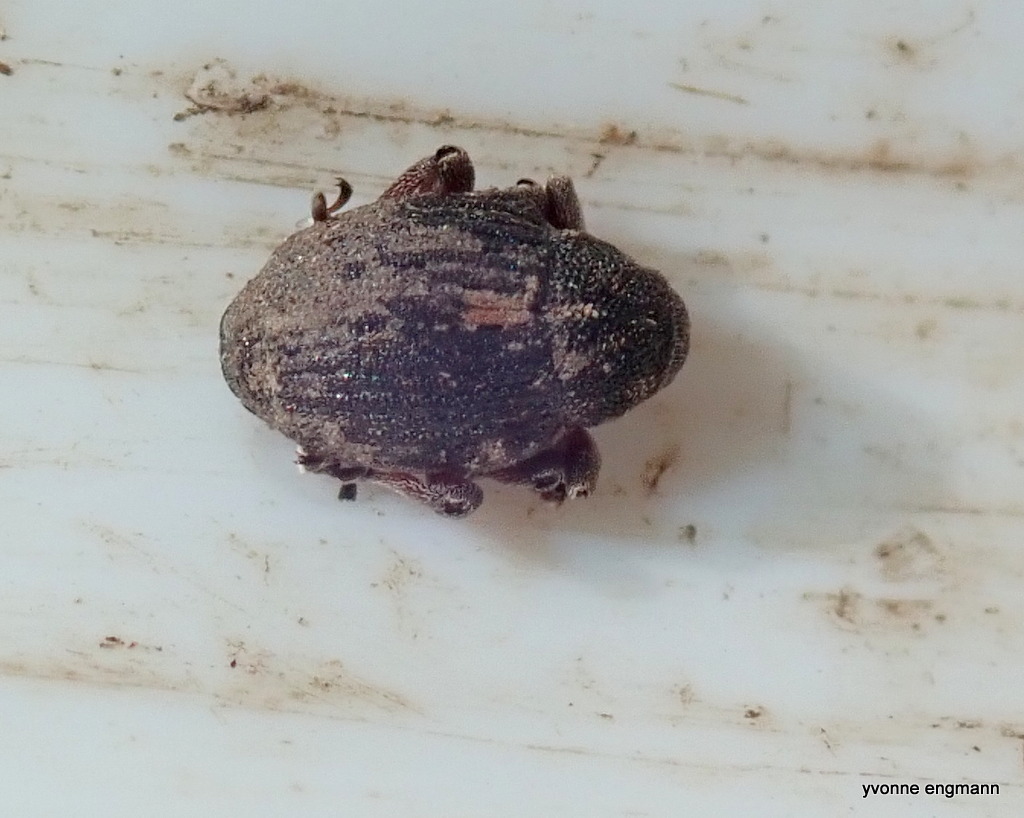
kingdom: Animalia
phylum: Arthropoda
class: Insecta
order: Coleoptera
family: Curculionidae
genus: Rhinoncus
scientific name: Rhinoncus leucostigma
